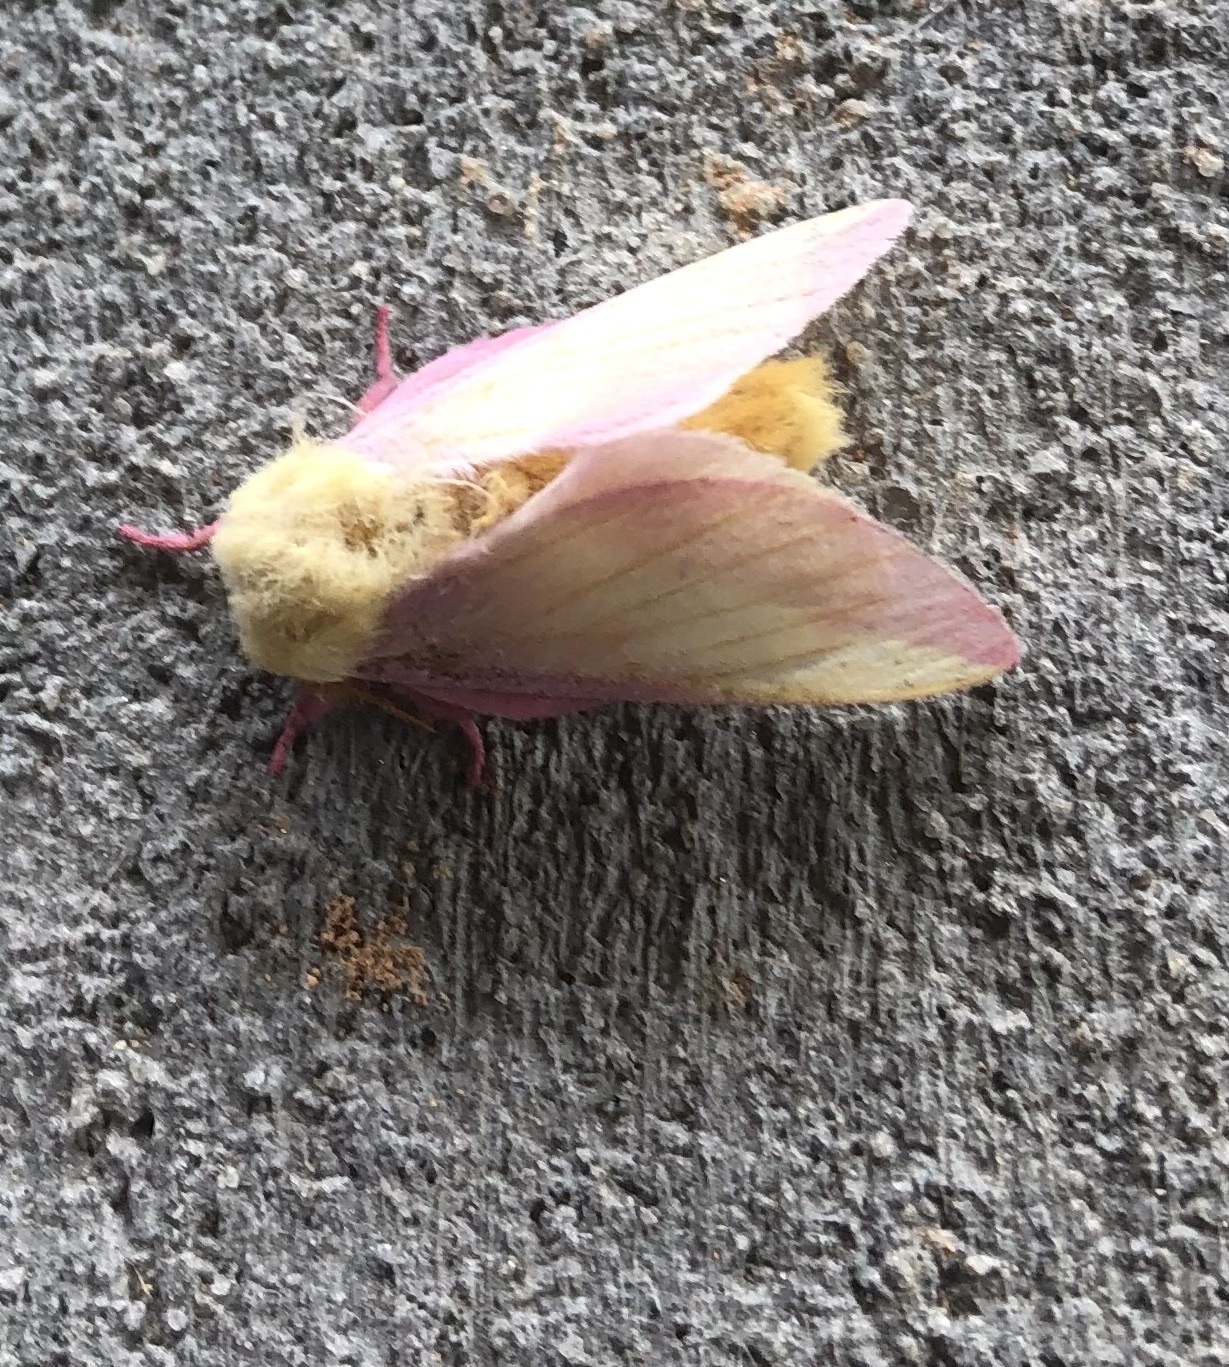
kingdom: Animalia
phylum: Arthropoda
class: Insecta
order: Lepidoptera
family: Saturniidae
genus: Dryocampa
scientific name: Dryocampa rubicunda
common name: Rosy maple moth
